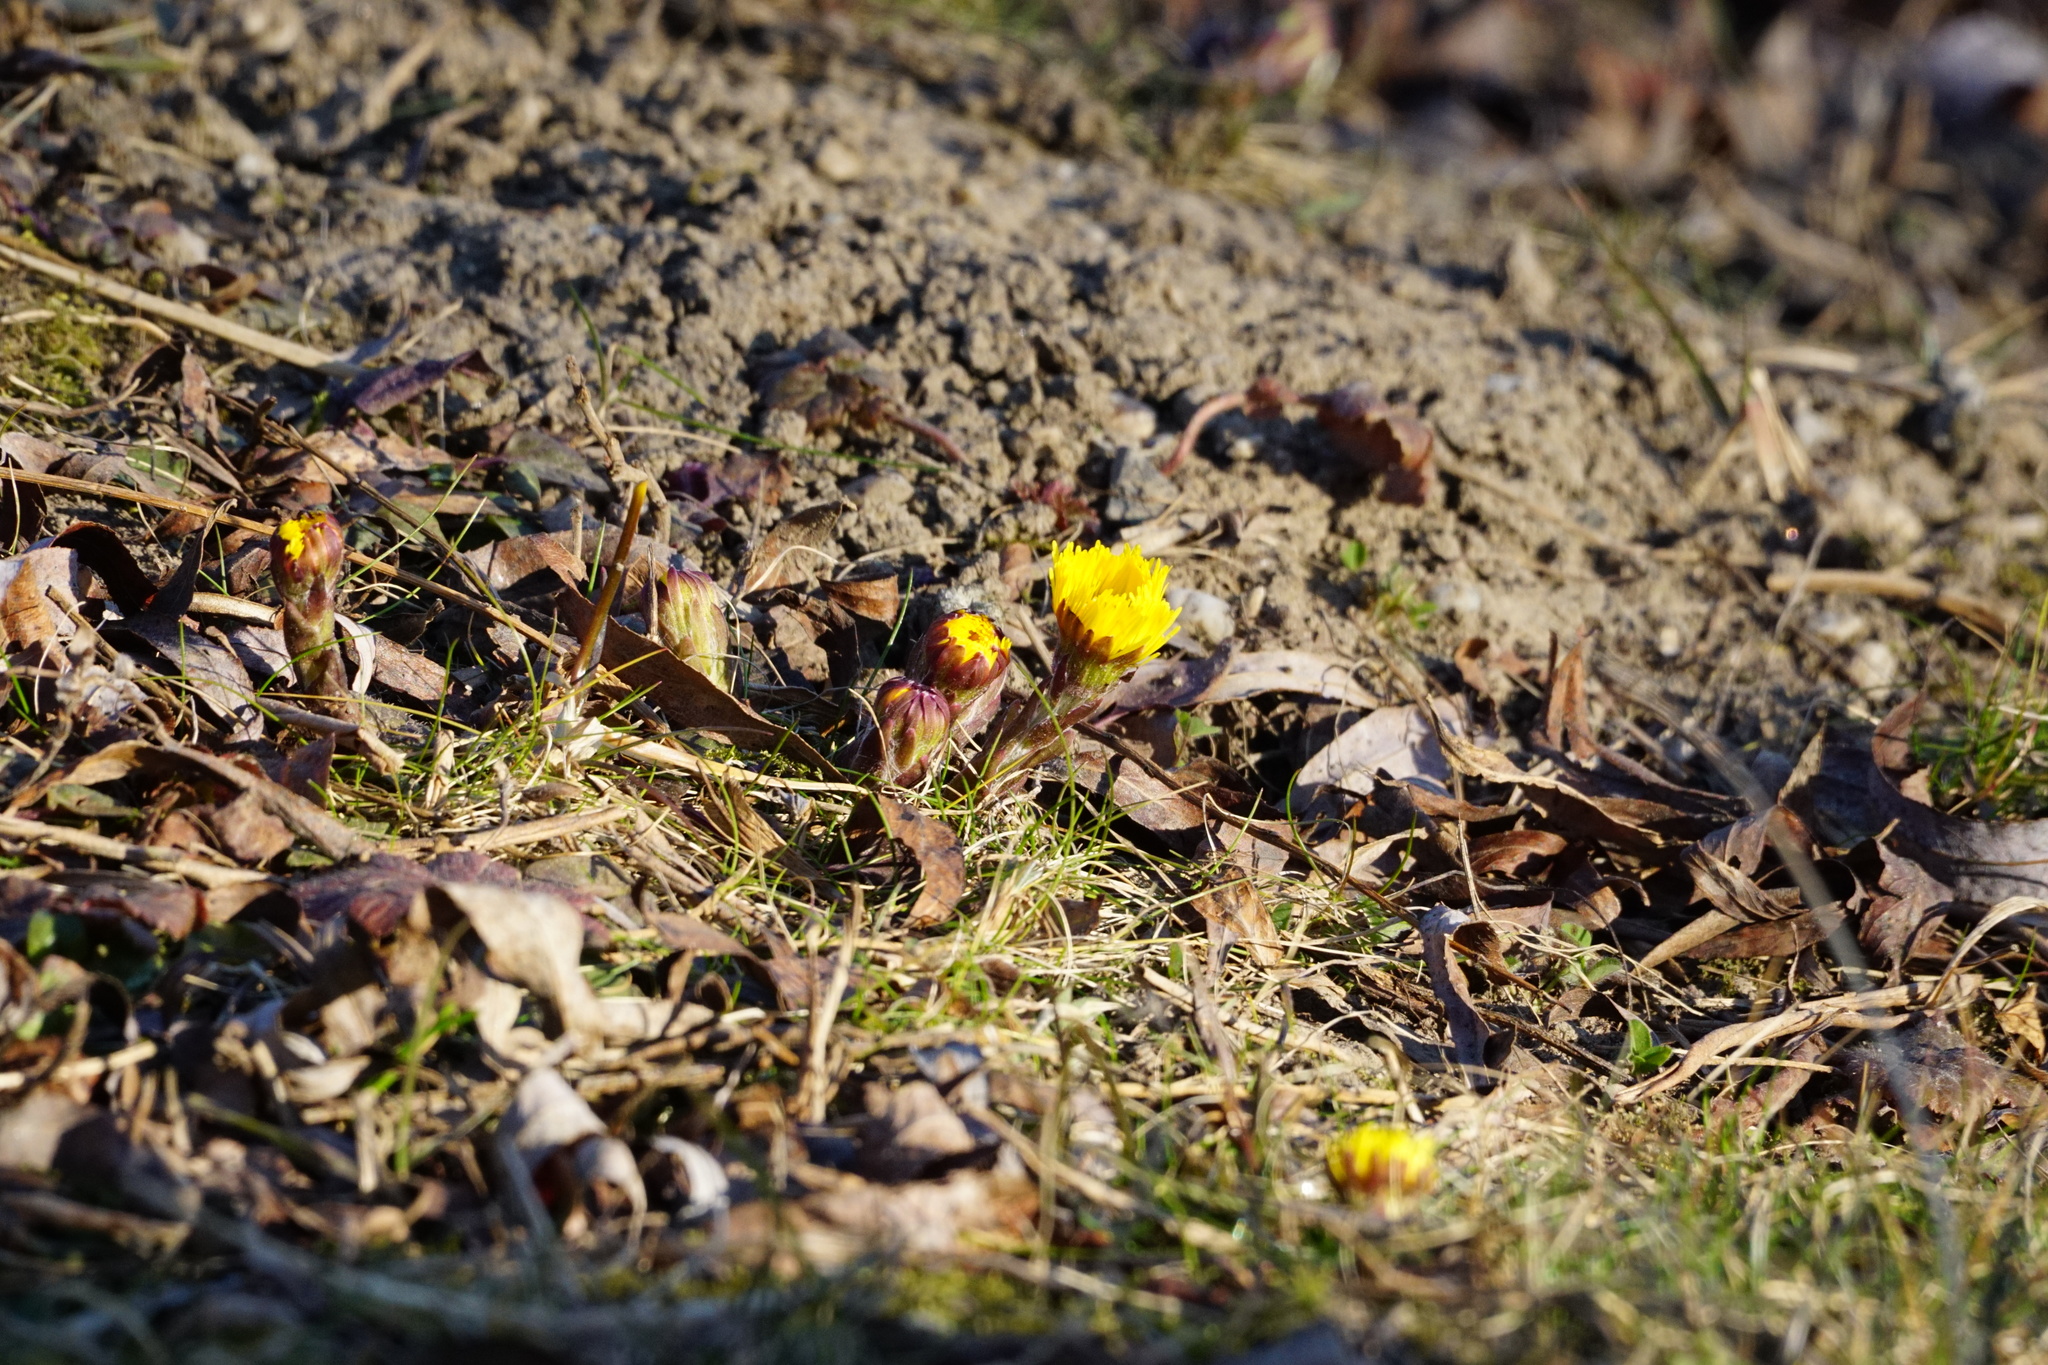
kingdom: Plantae
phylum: Tracheophyta
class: Magnoliopsida
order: Asterales
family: Asteraceae
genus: Tussilago
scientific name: Tussilago farfara
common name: Coltsfoot
